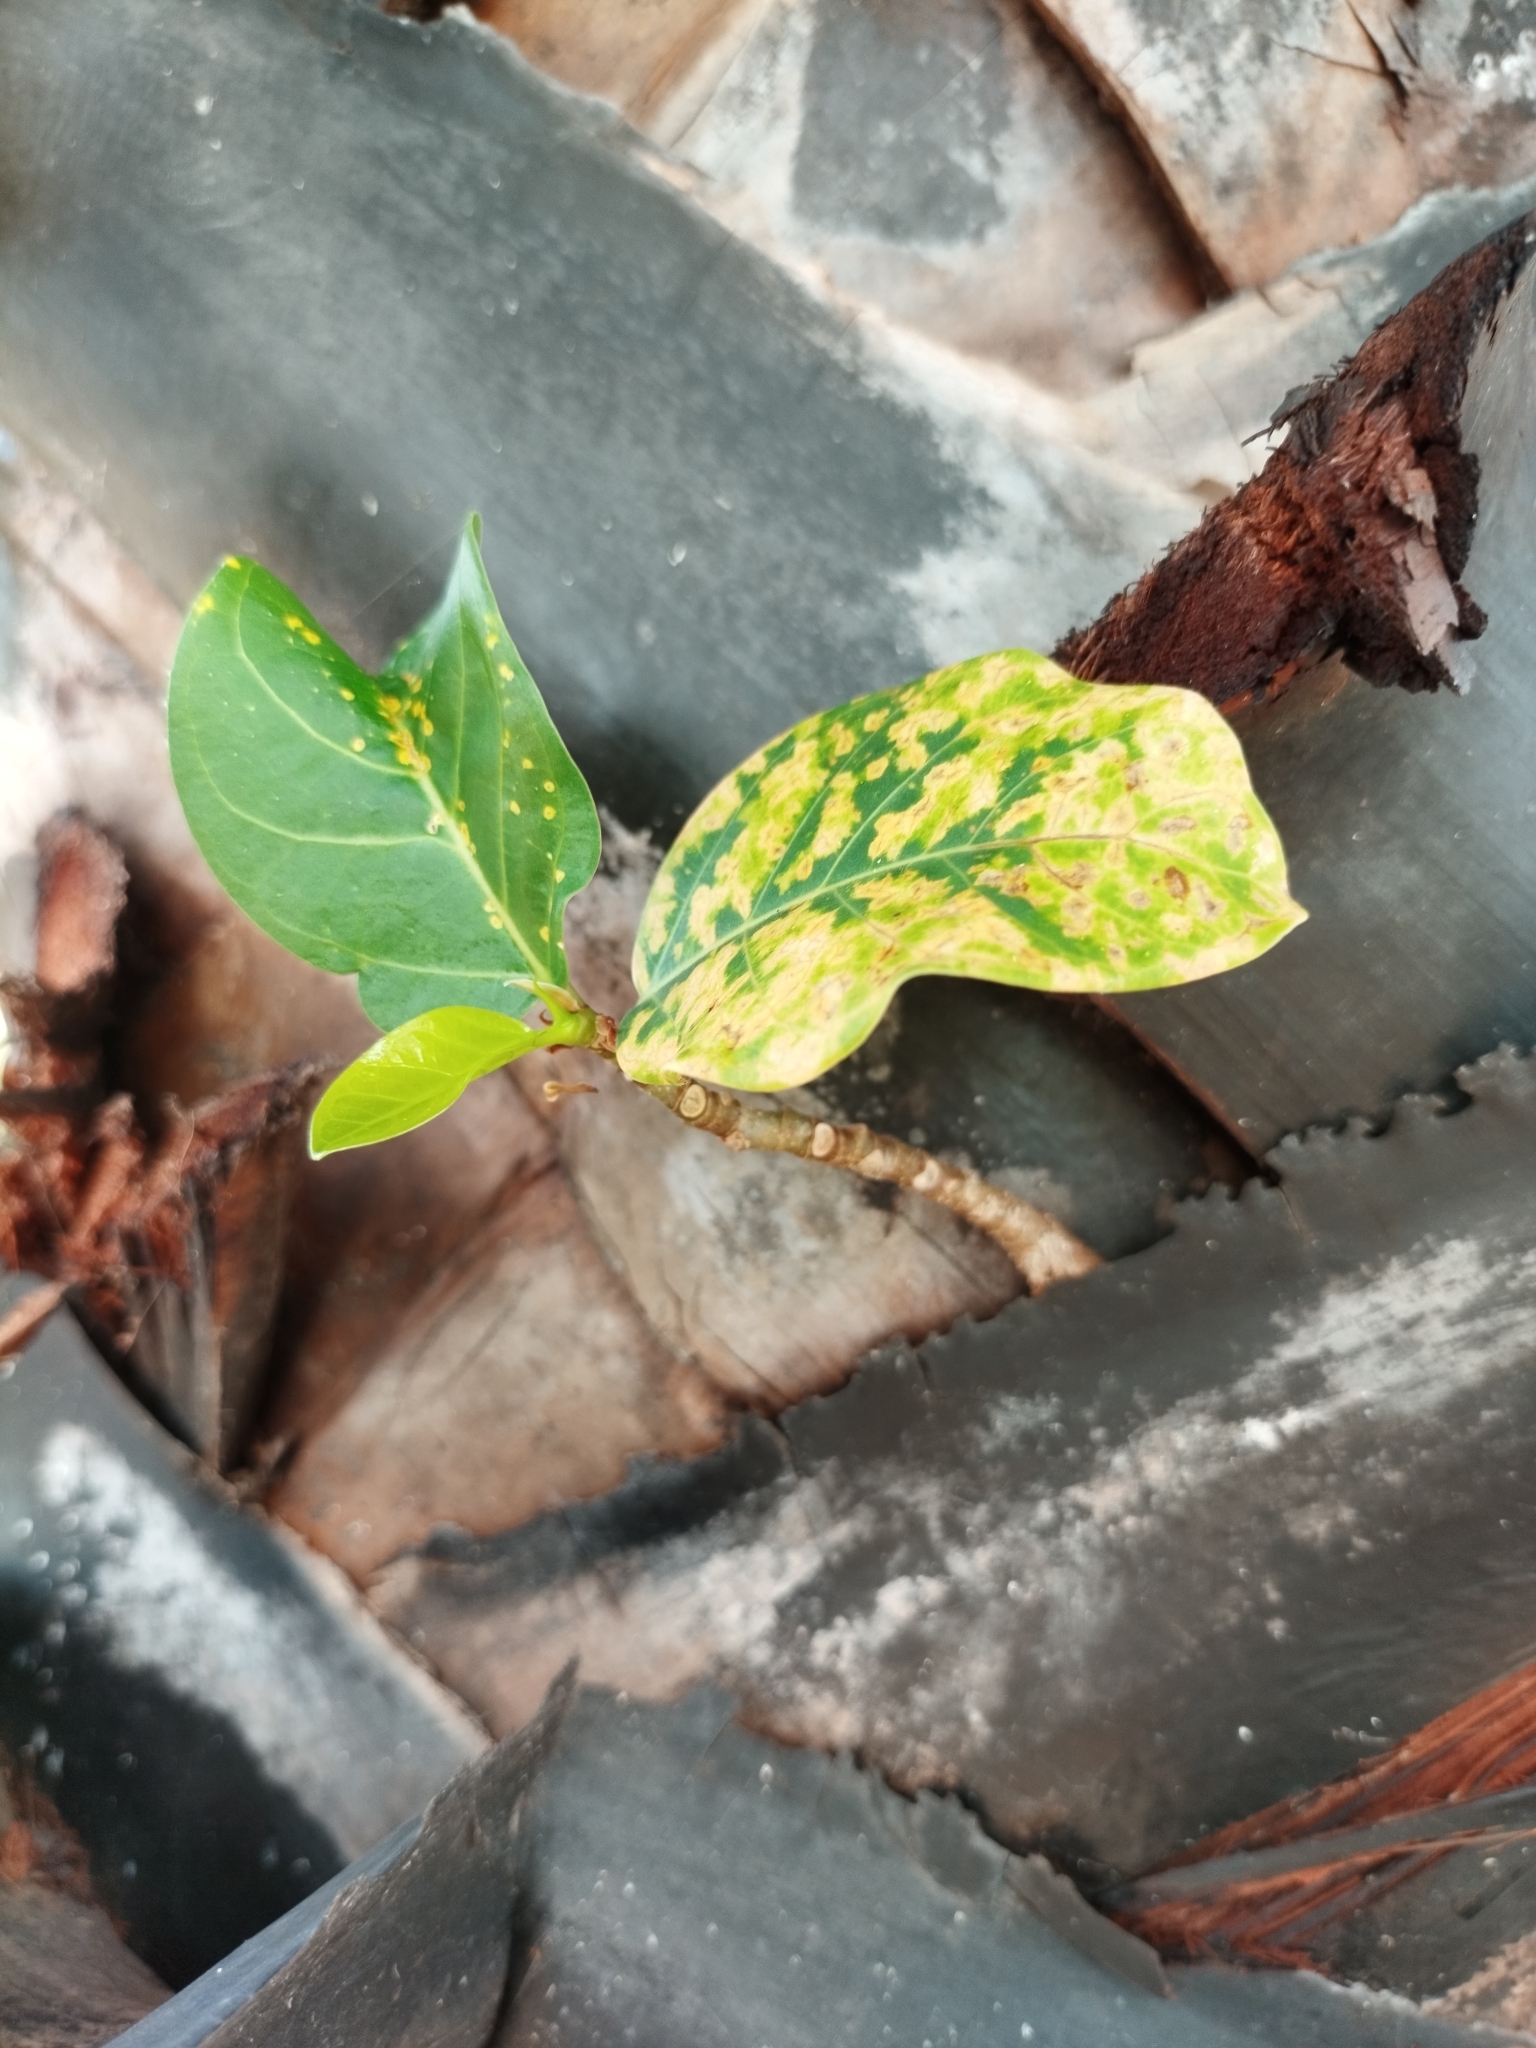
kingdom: Plantae
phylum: Tracheophyta
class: Magnoliopsida
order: Rosales
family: Moraceae
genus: Ficus
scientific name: Ficus benghalensis
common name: Indian banyan
